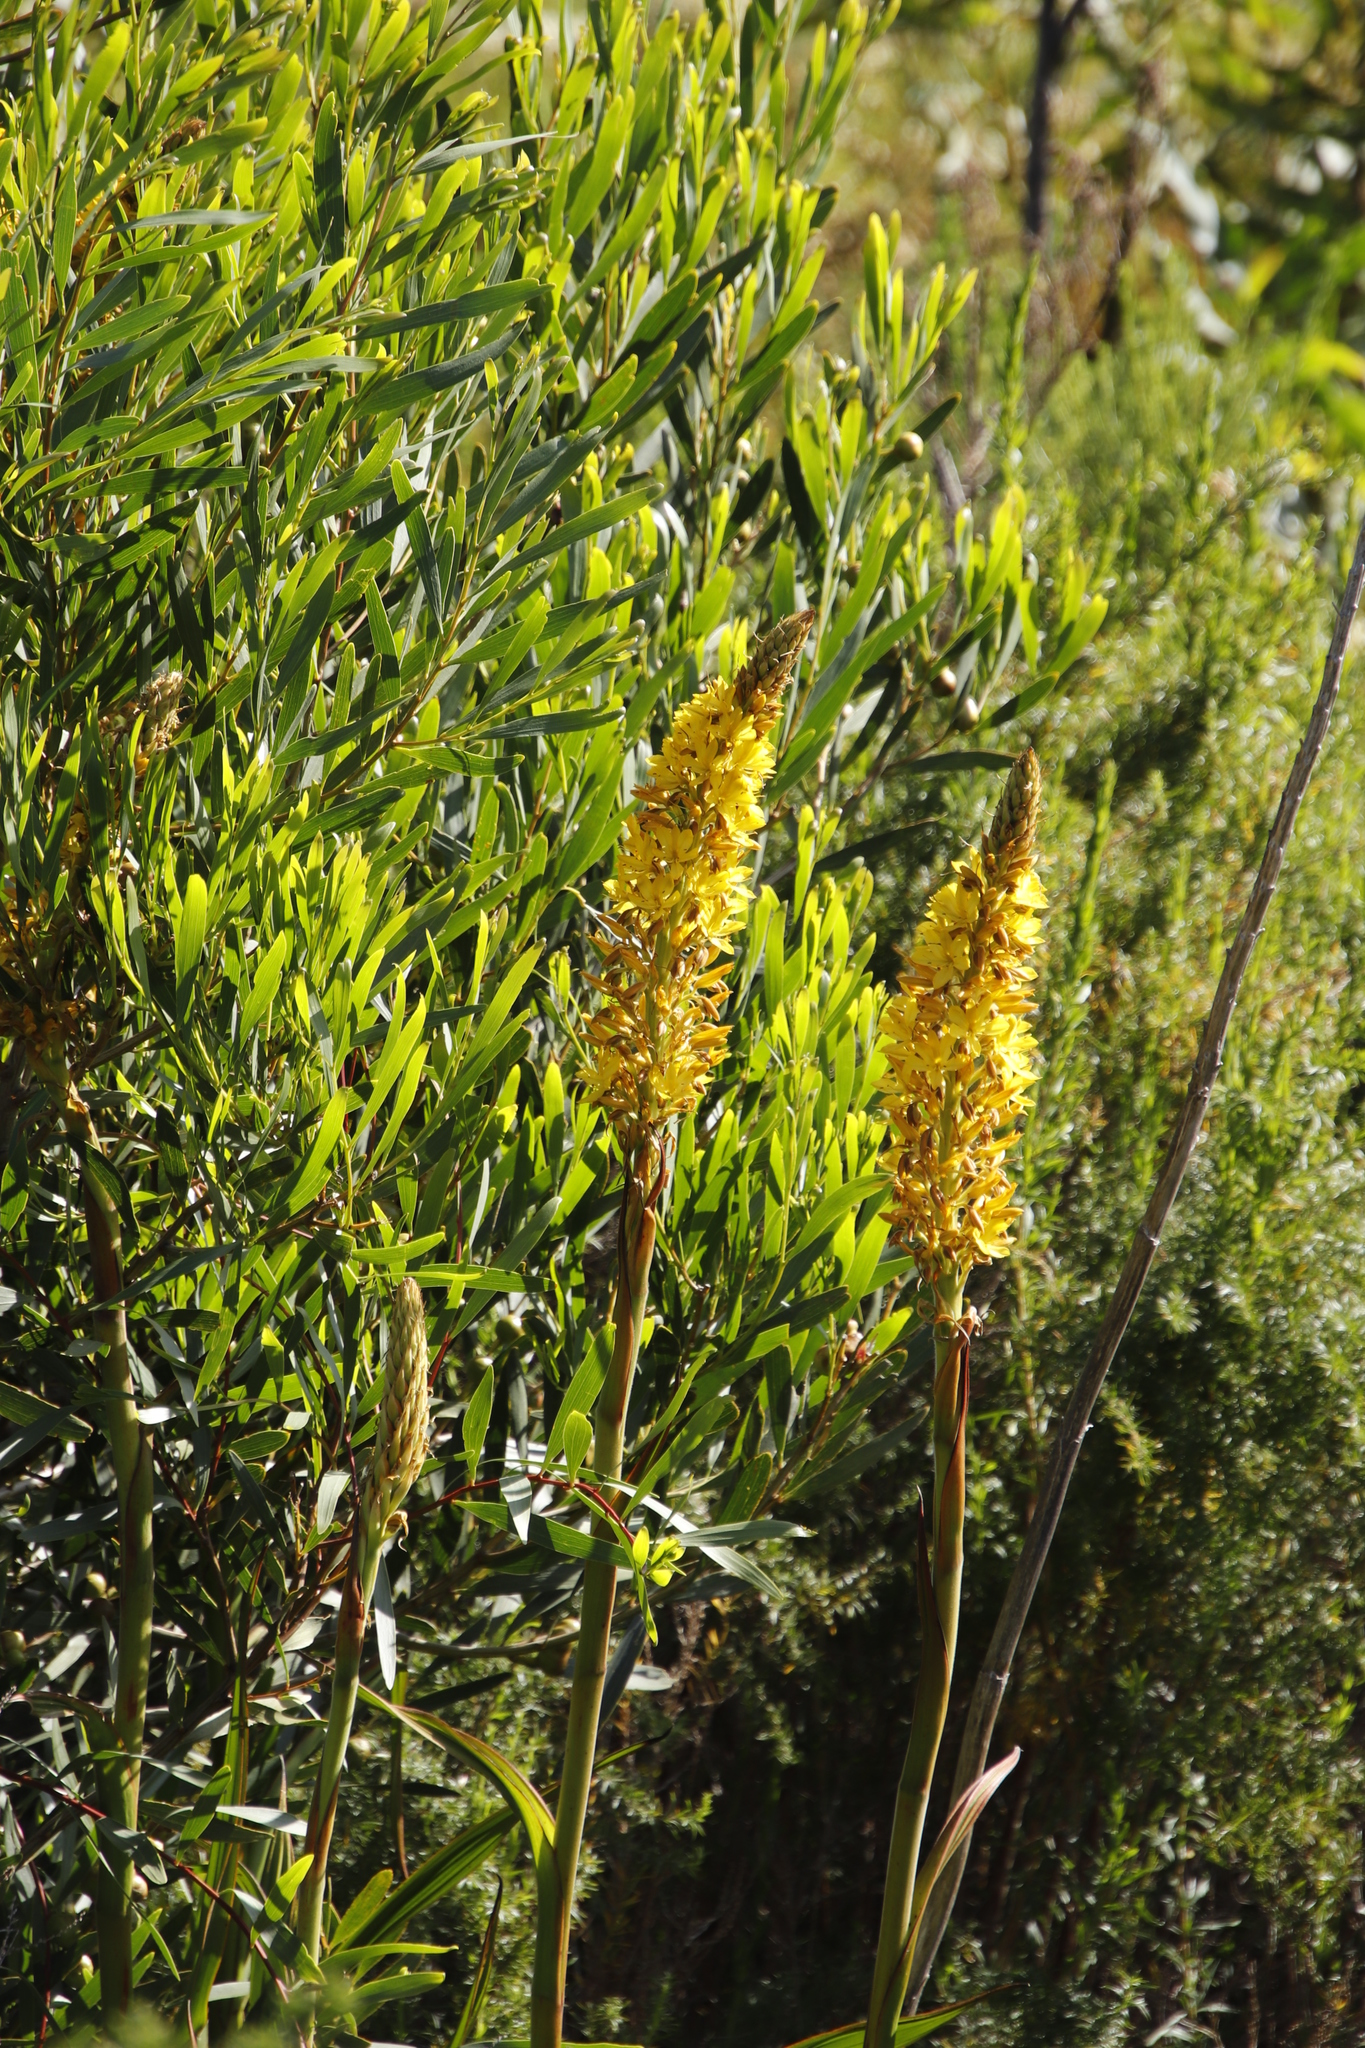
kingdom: Plantae
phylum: Tracheophyta
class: Liliopsida
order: Commelinales
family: Haemodoraceae
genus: Wachendorfia
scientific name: Wachendorfia thyrsiflora
